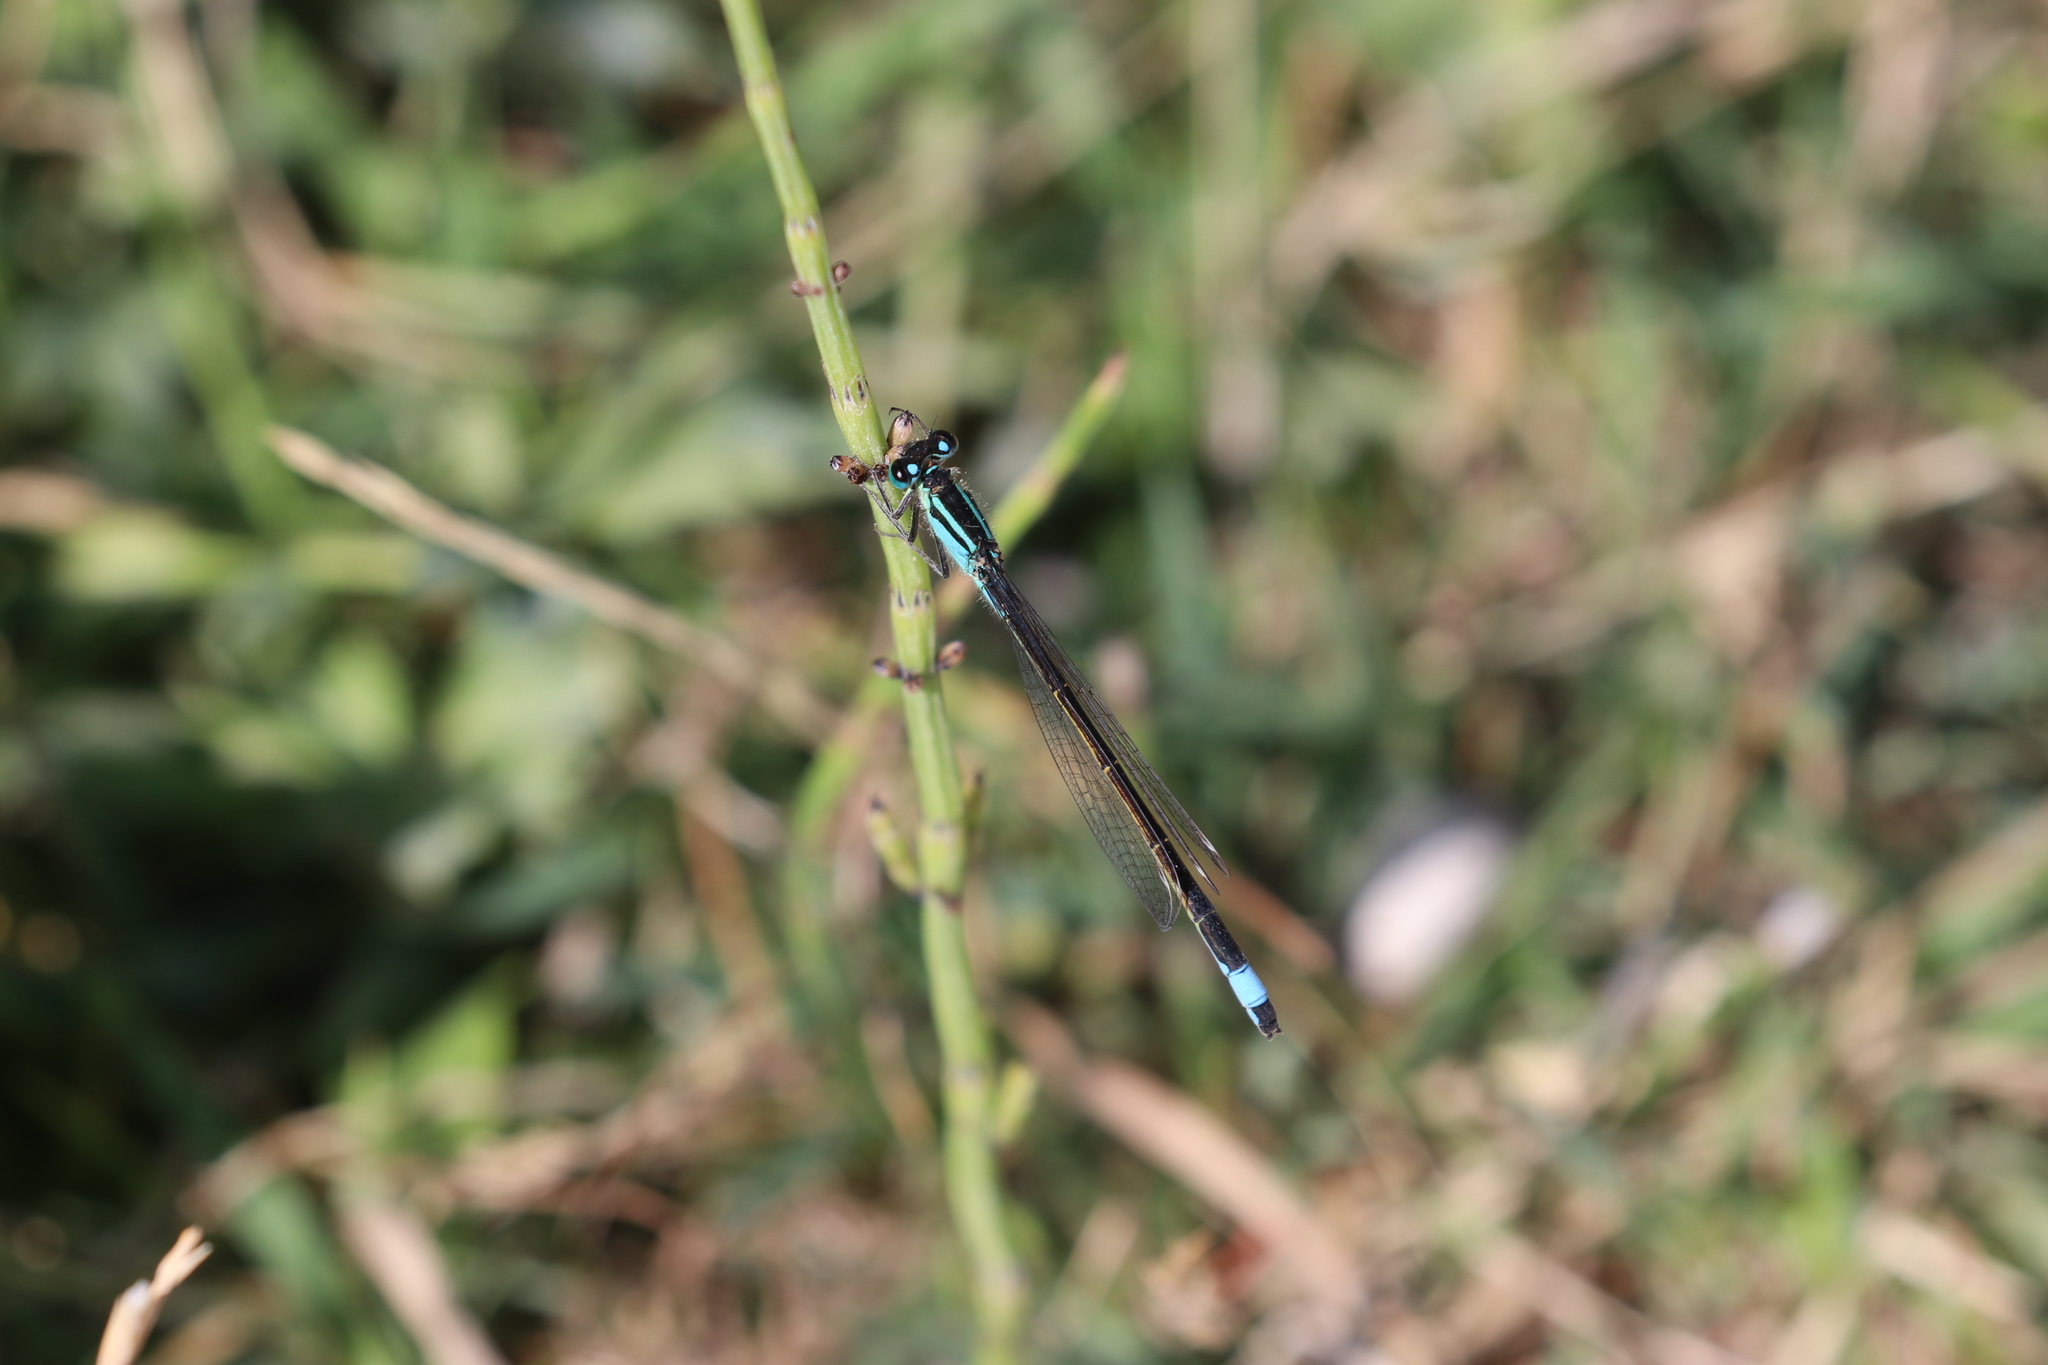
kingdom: Animalia
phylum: Arthropoda
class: Insecta
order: Odonata
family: Coenagrionidae
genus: Ischnura
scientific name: Ischnura elegans
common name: Blue-tailed damselfly
